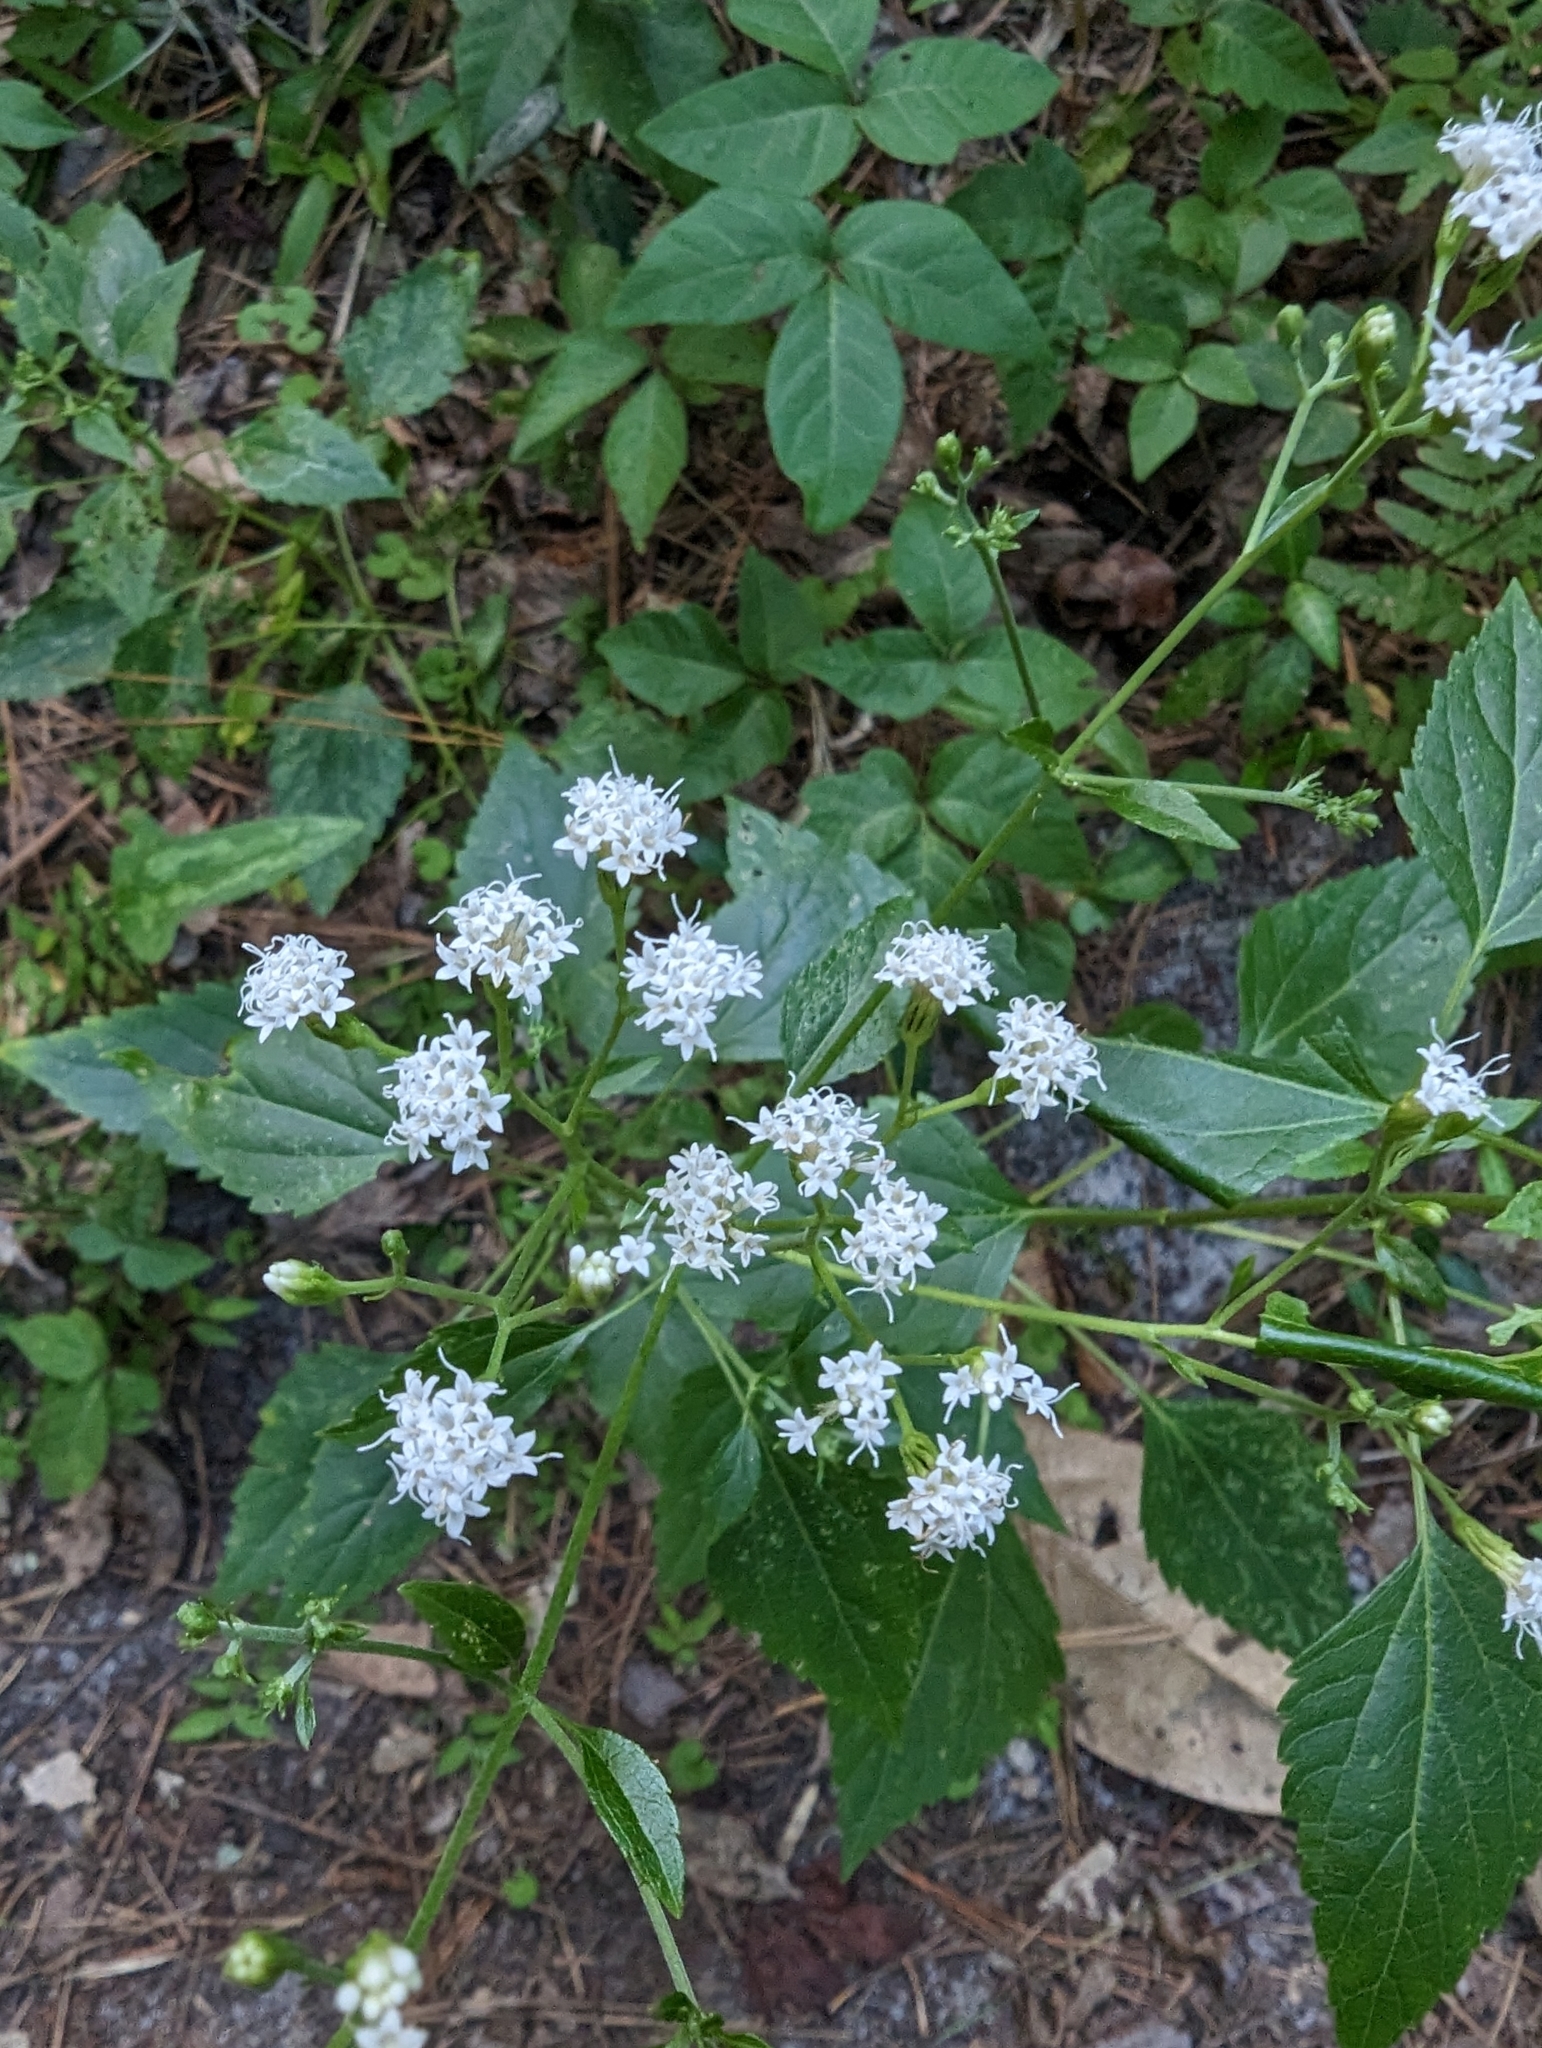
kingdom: Plantae
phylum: Tracheophyta
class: Magnoliopsida
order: Asterales
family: Asteraceae
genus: Ageratina
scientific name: Ageratina jucunda
